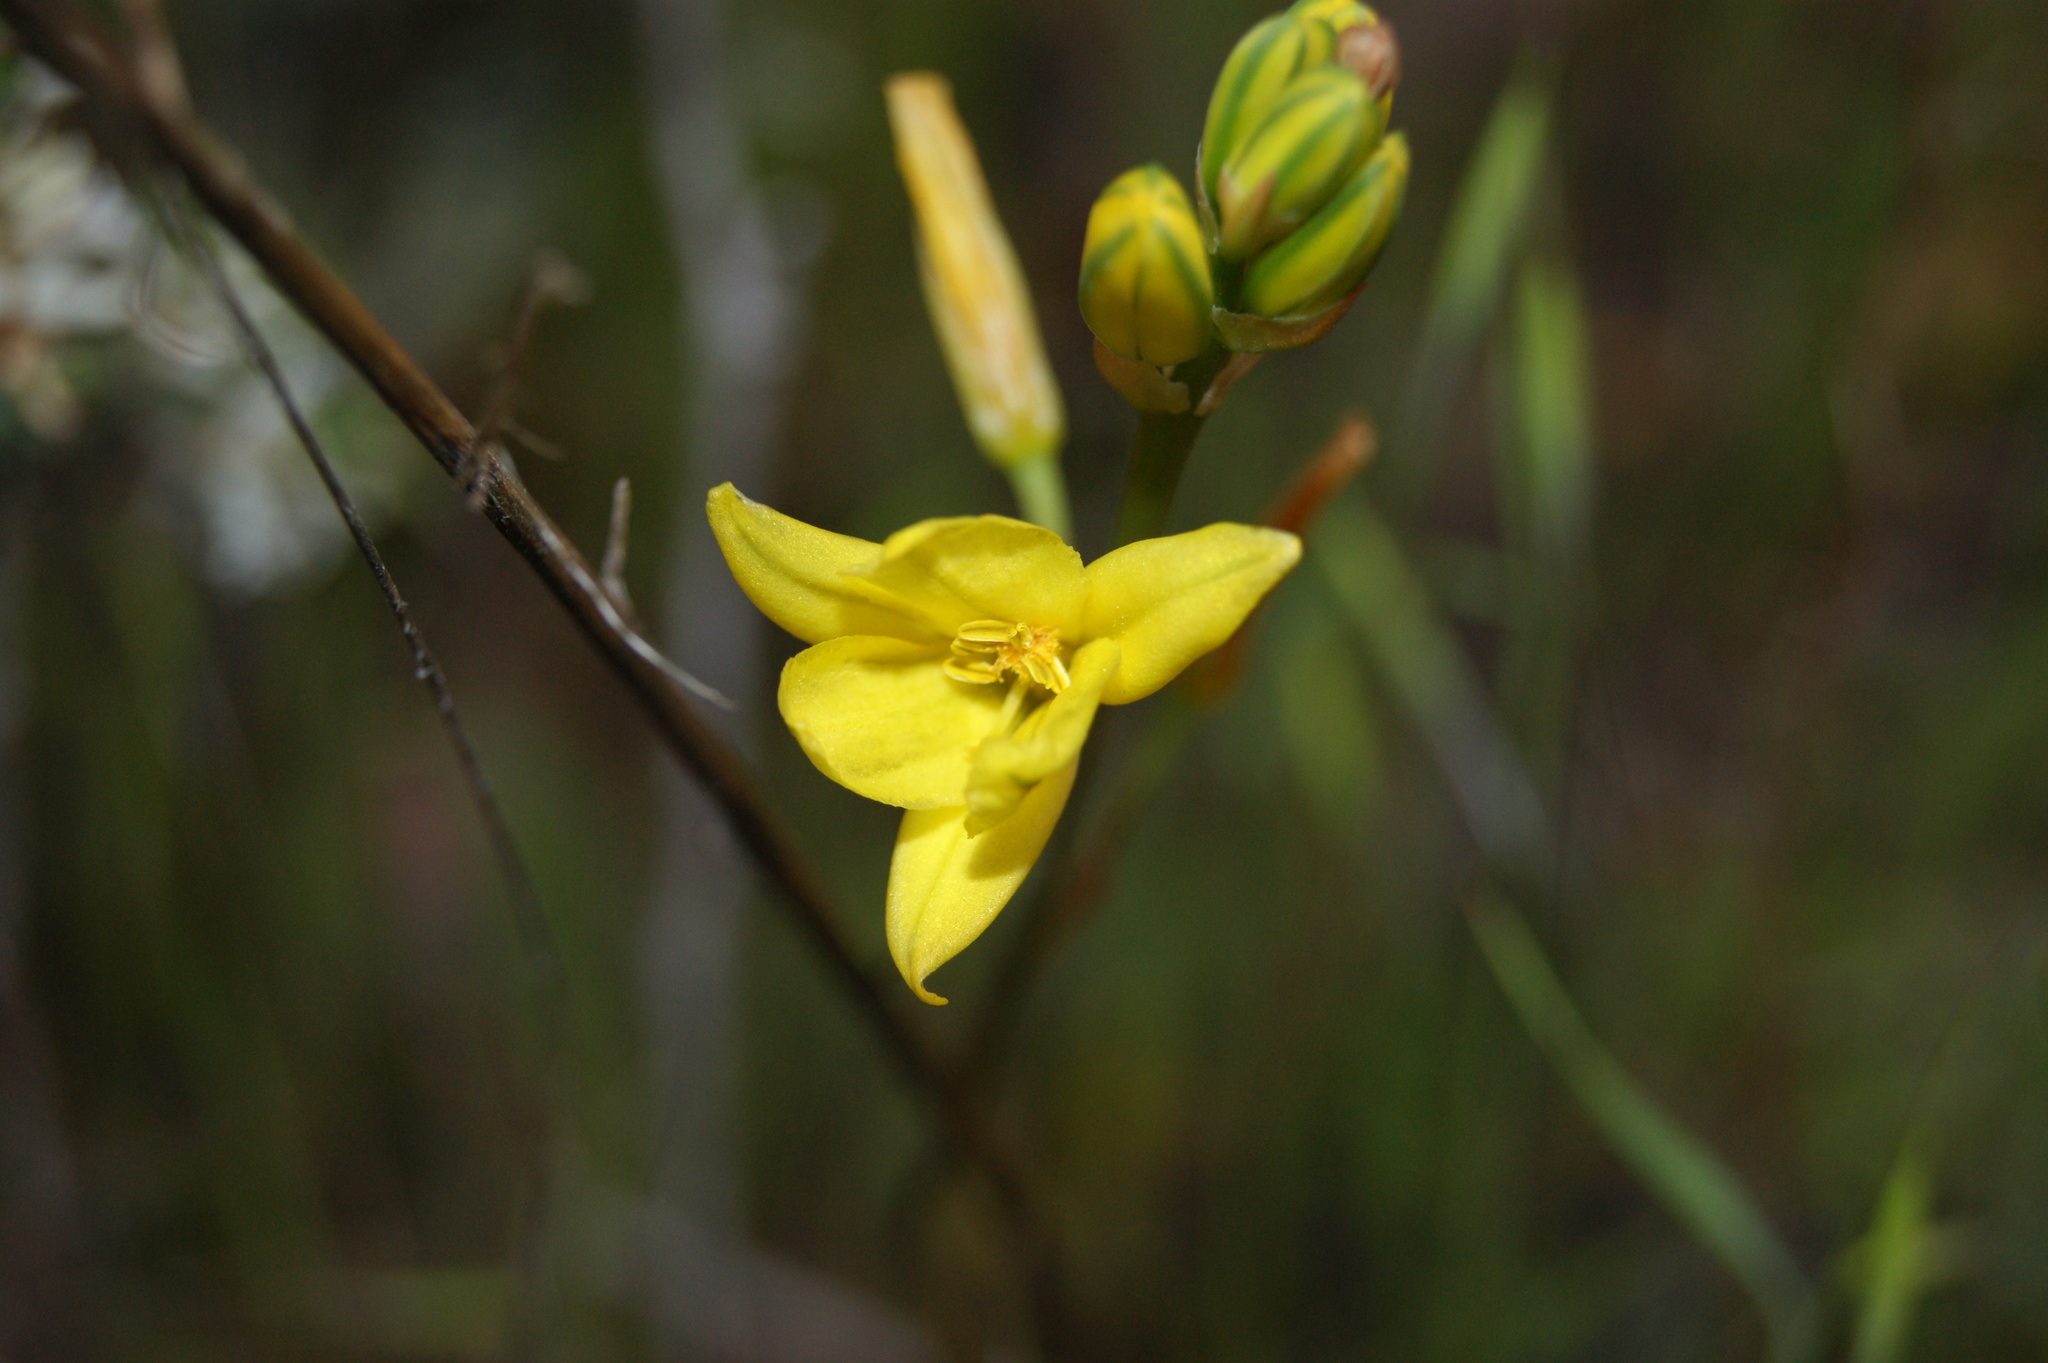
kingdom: Plantae
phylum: Tracheophyta
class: Liliopsida
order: Asparagales
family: Asphodelaceae
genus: Bulbine
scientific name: Bulbine bulbosa
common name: Golden-lily
